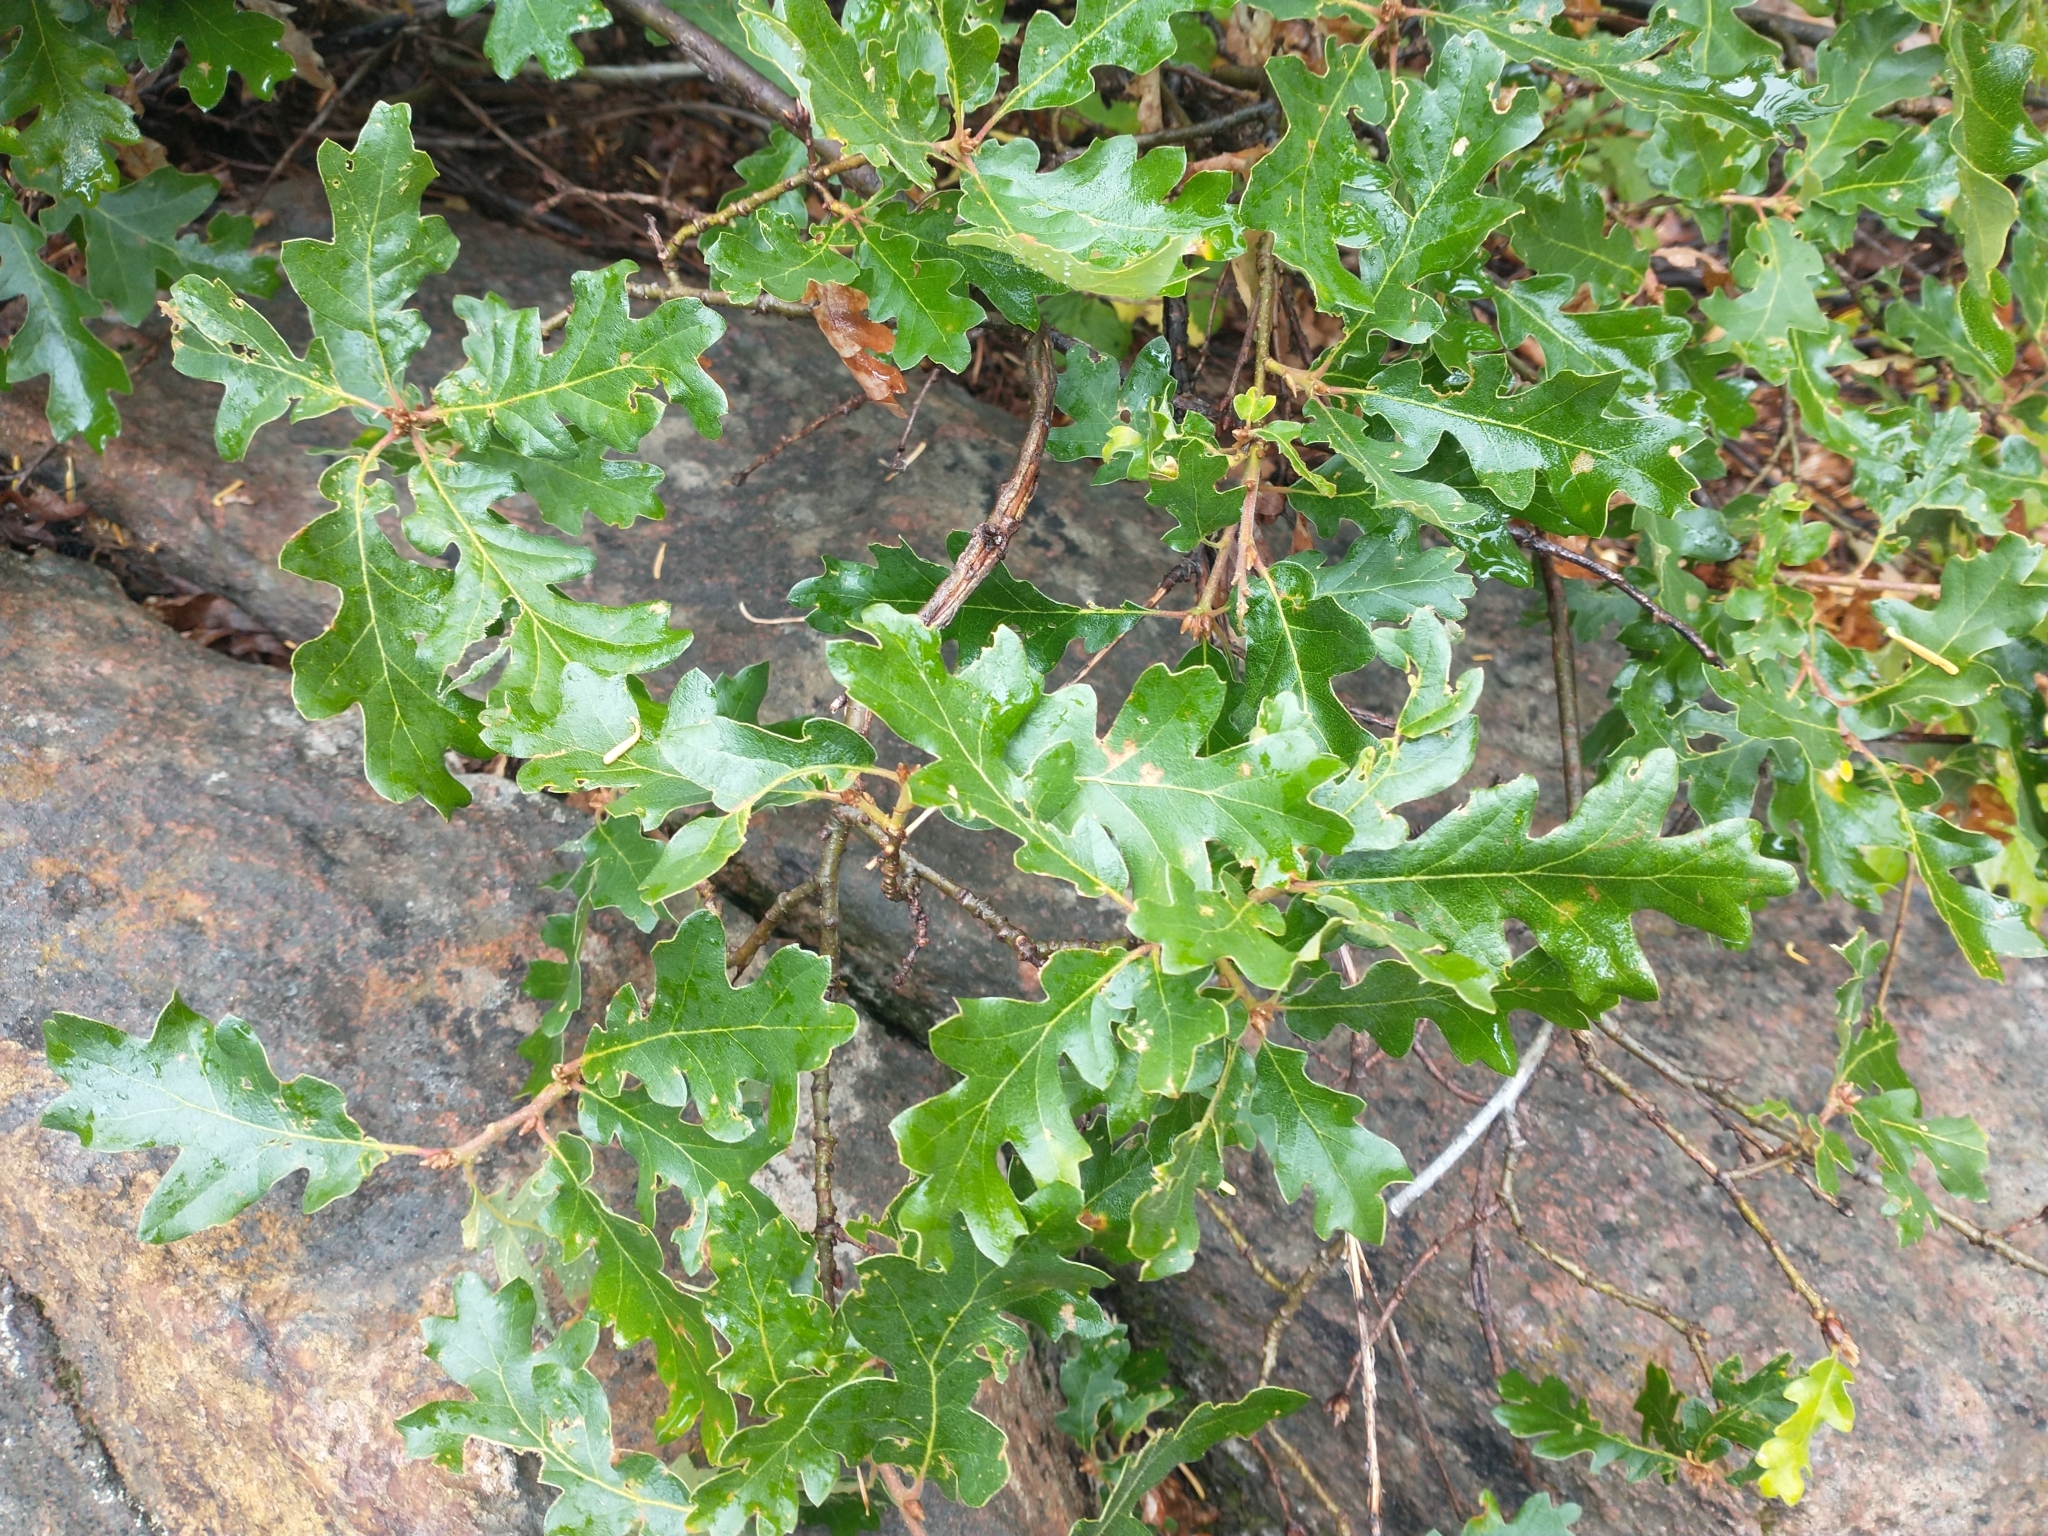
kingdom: Plantae
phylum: Tracheophyta
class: Magnoliopsida
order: Fagales
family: Fagaceae
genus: Quercus
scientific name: Quercus garryana
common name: Garry oak
